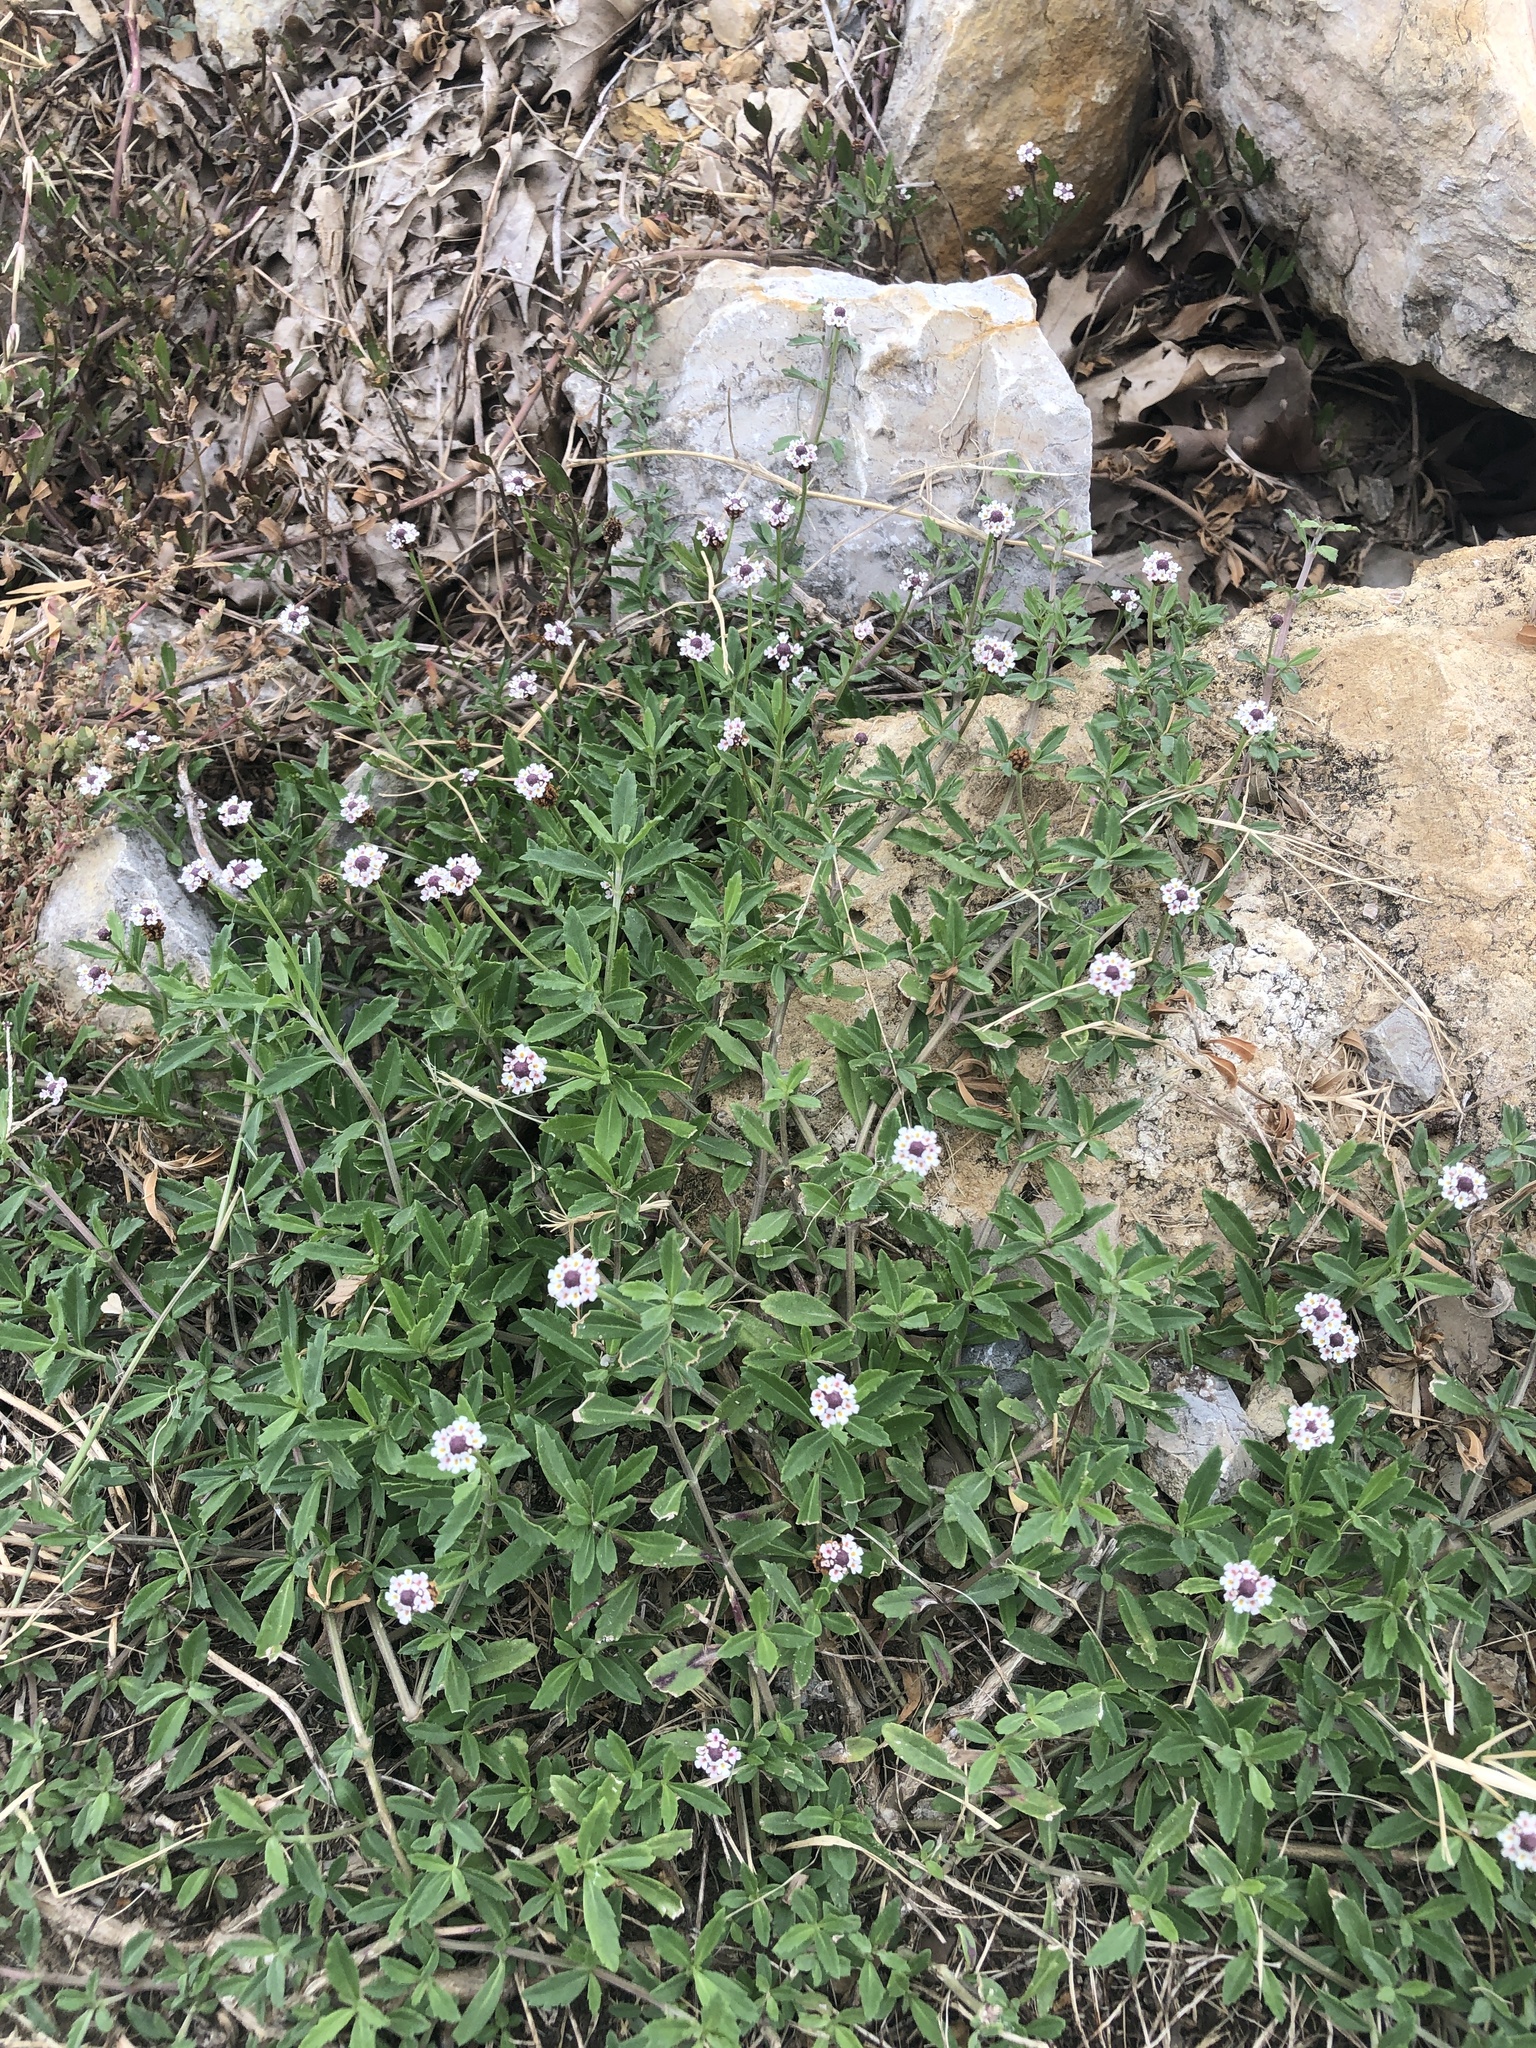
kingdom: Plantae
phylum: Tracheophyta
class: Magnoliopsida
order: Lamiales
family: Verbenaceae
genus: Phyla
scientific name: Phyla nodiflora
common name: Frogfruit
